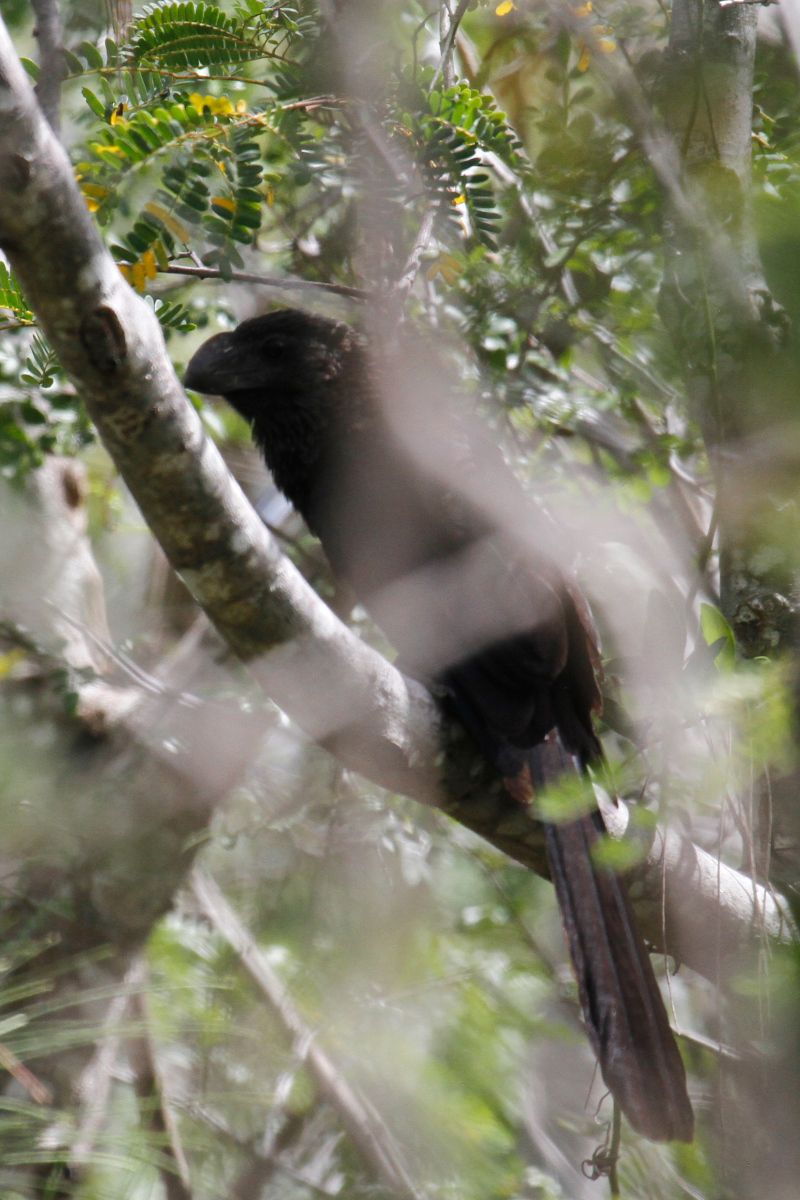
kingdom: Animalia
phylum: Chordata
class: Aves
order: Cuculiformes
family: Cuculidae
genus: Crotophaga
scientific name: Crotophaga ani
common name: Smooth-billed ani
